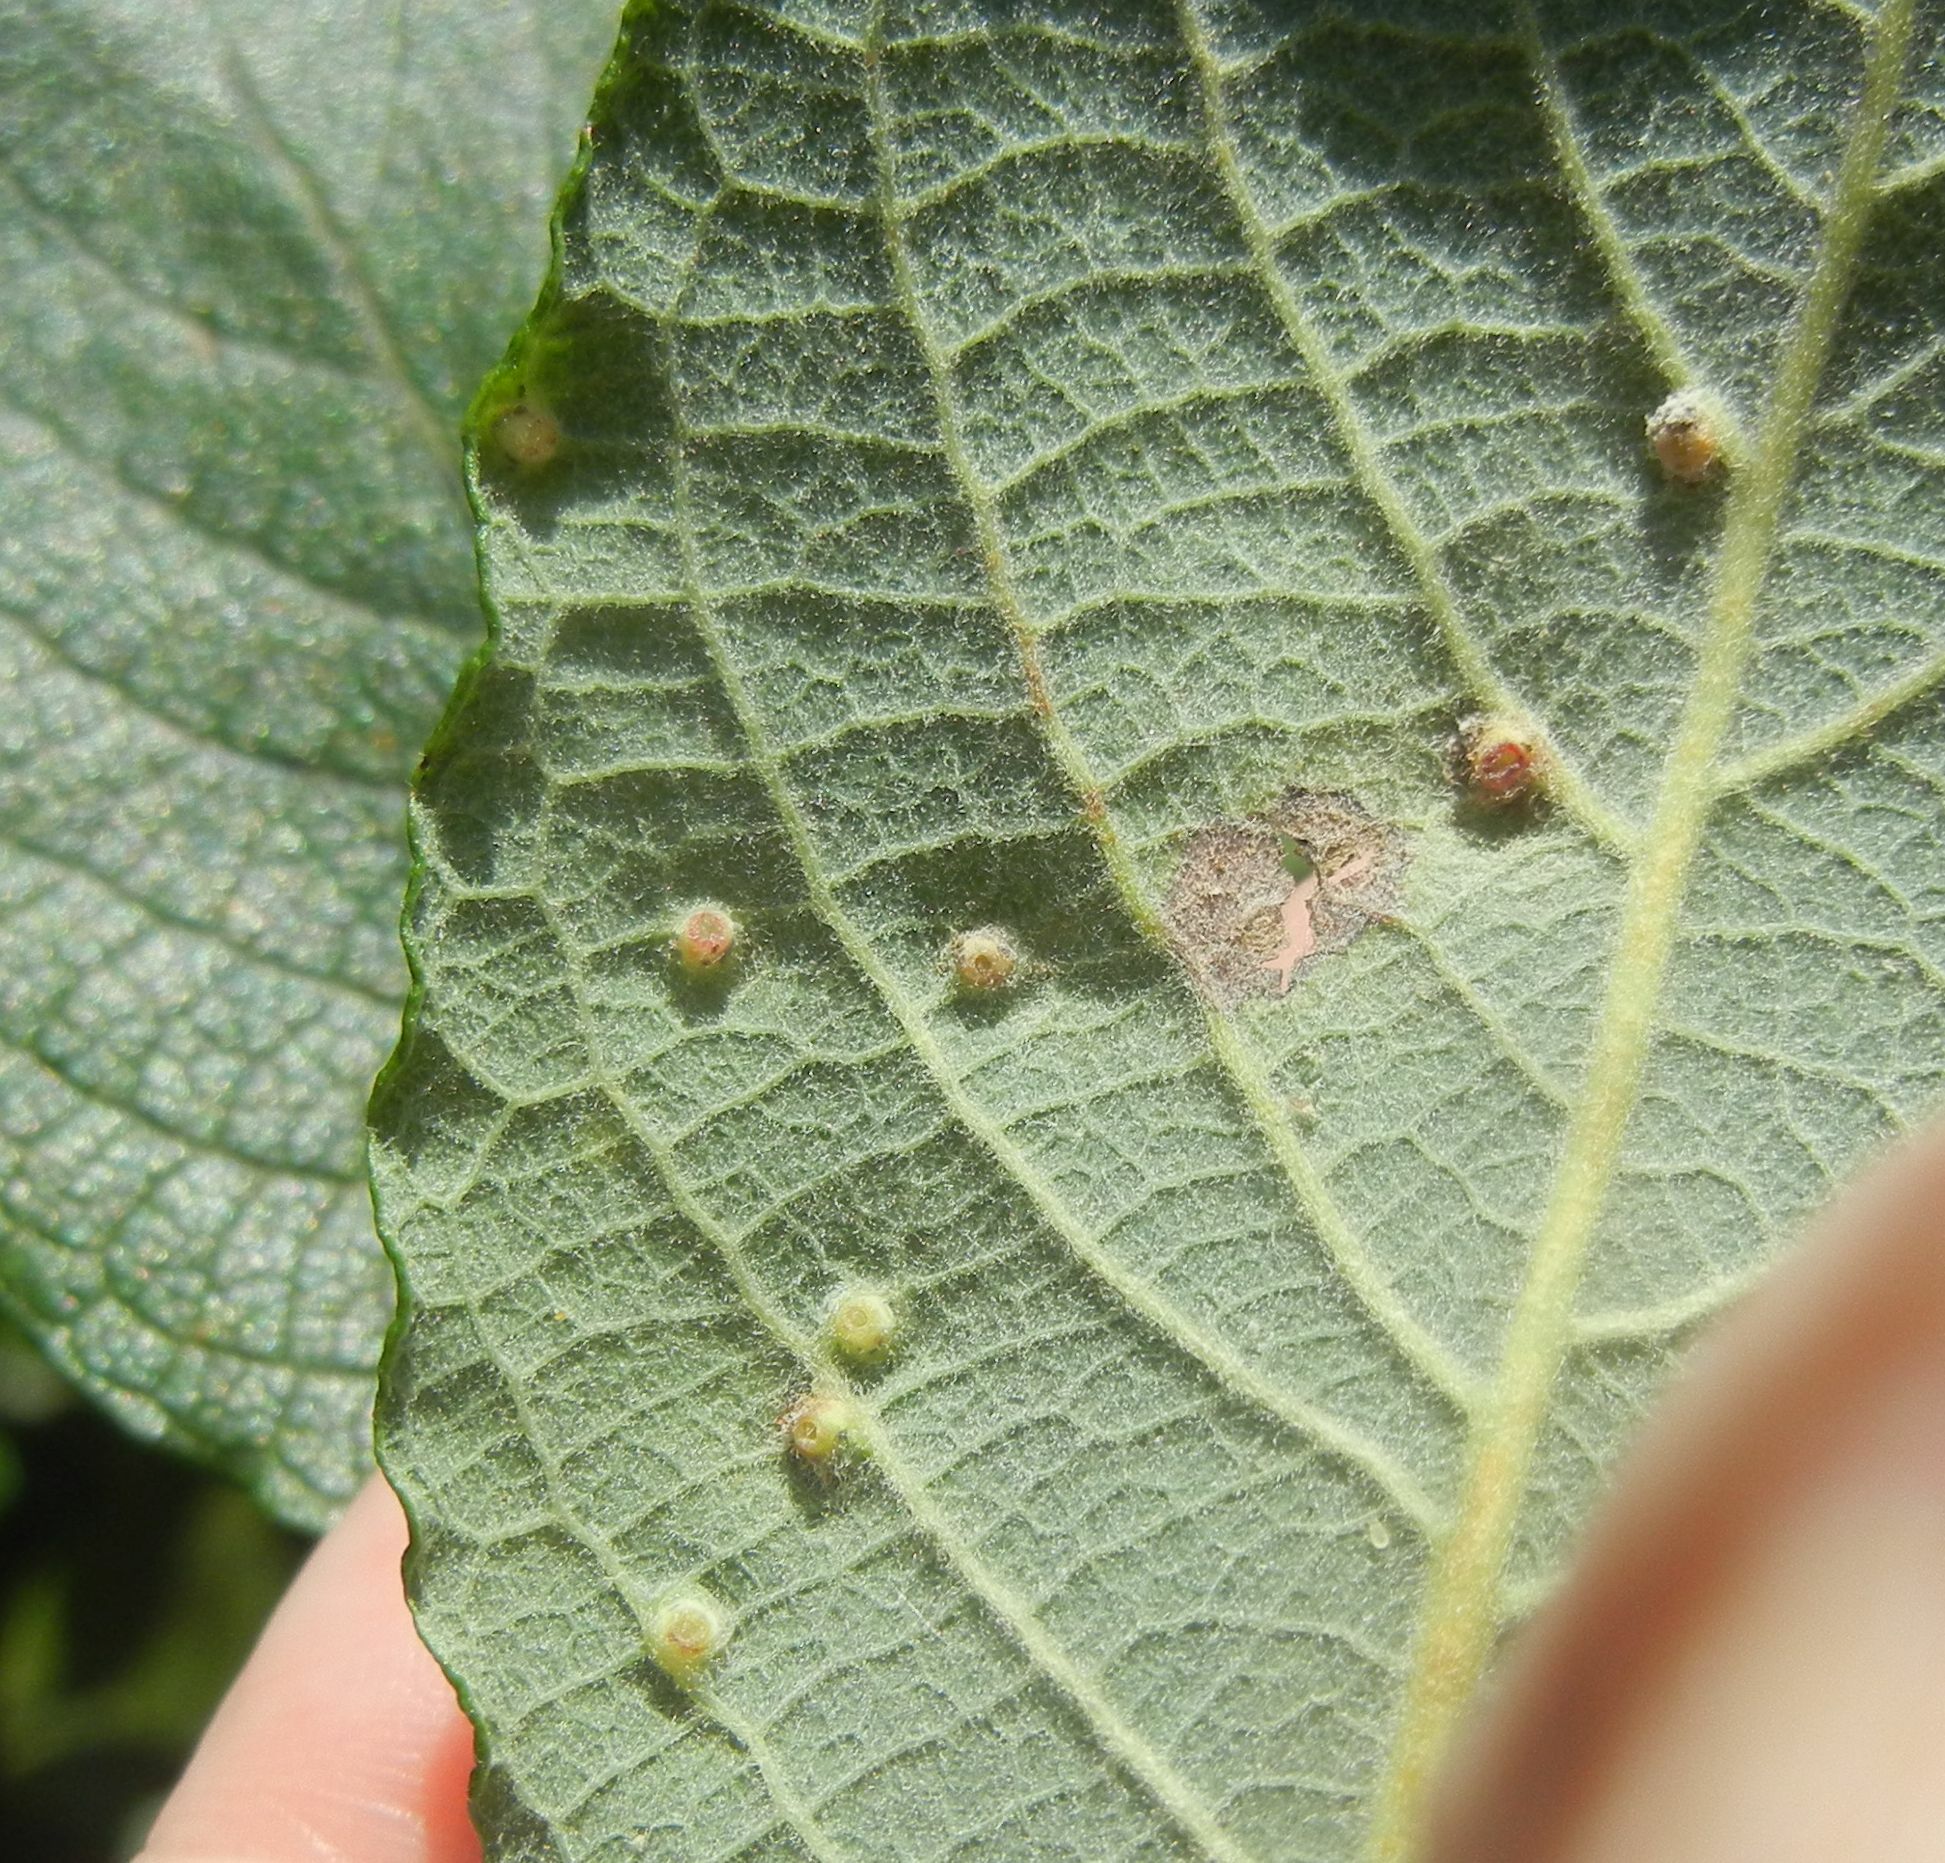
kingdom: Animalia
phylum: Arthropoda
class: Insecta
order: Diptera
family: Cecidomyiidae
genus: Iteomyia
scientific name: Iteomyia capreae
